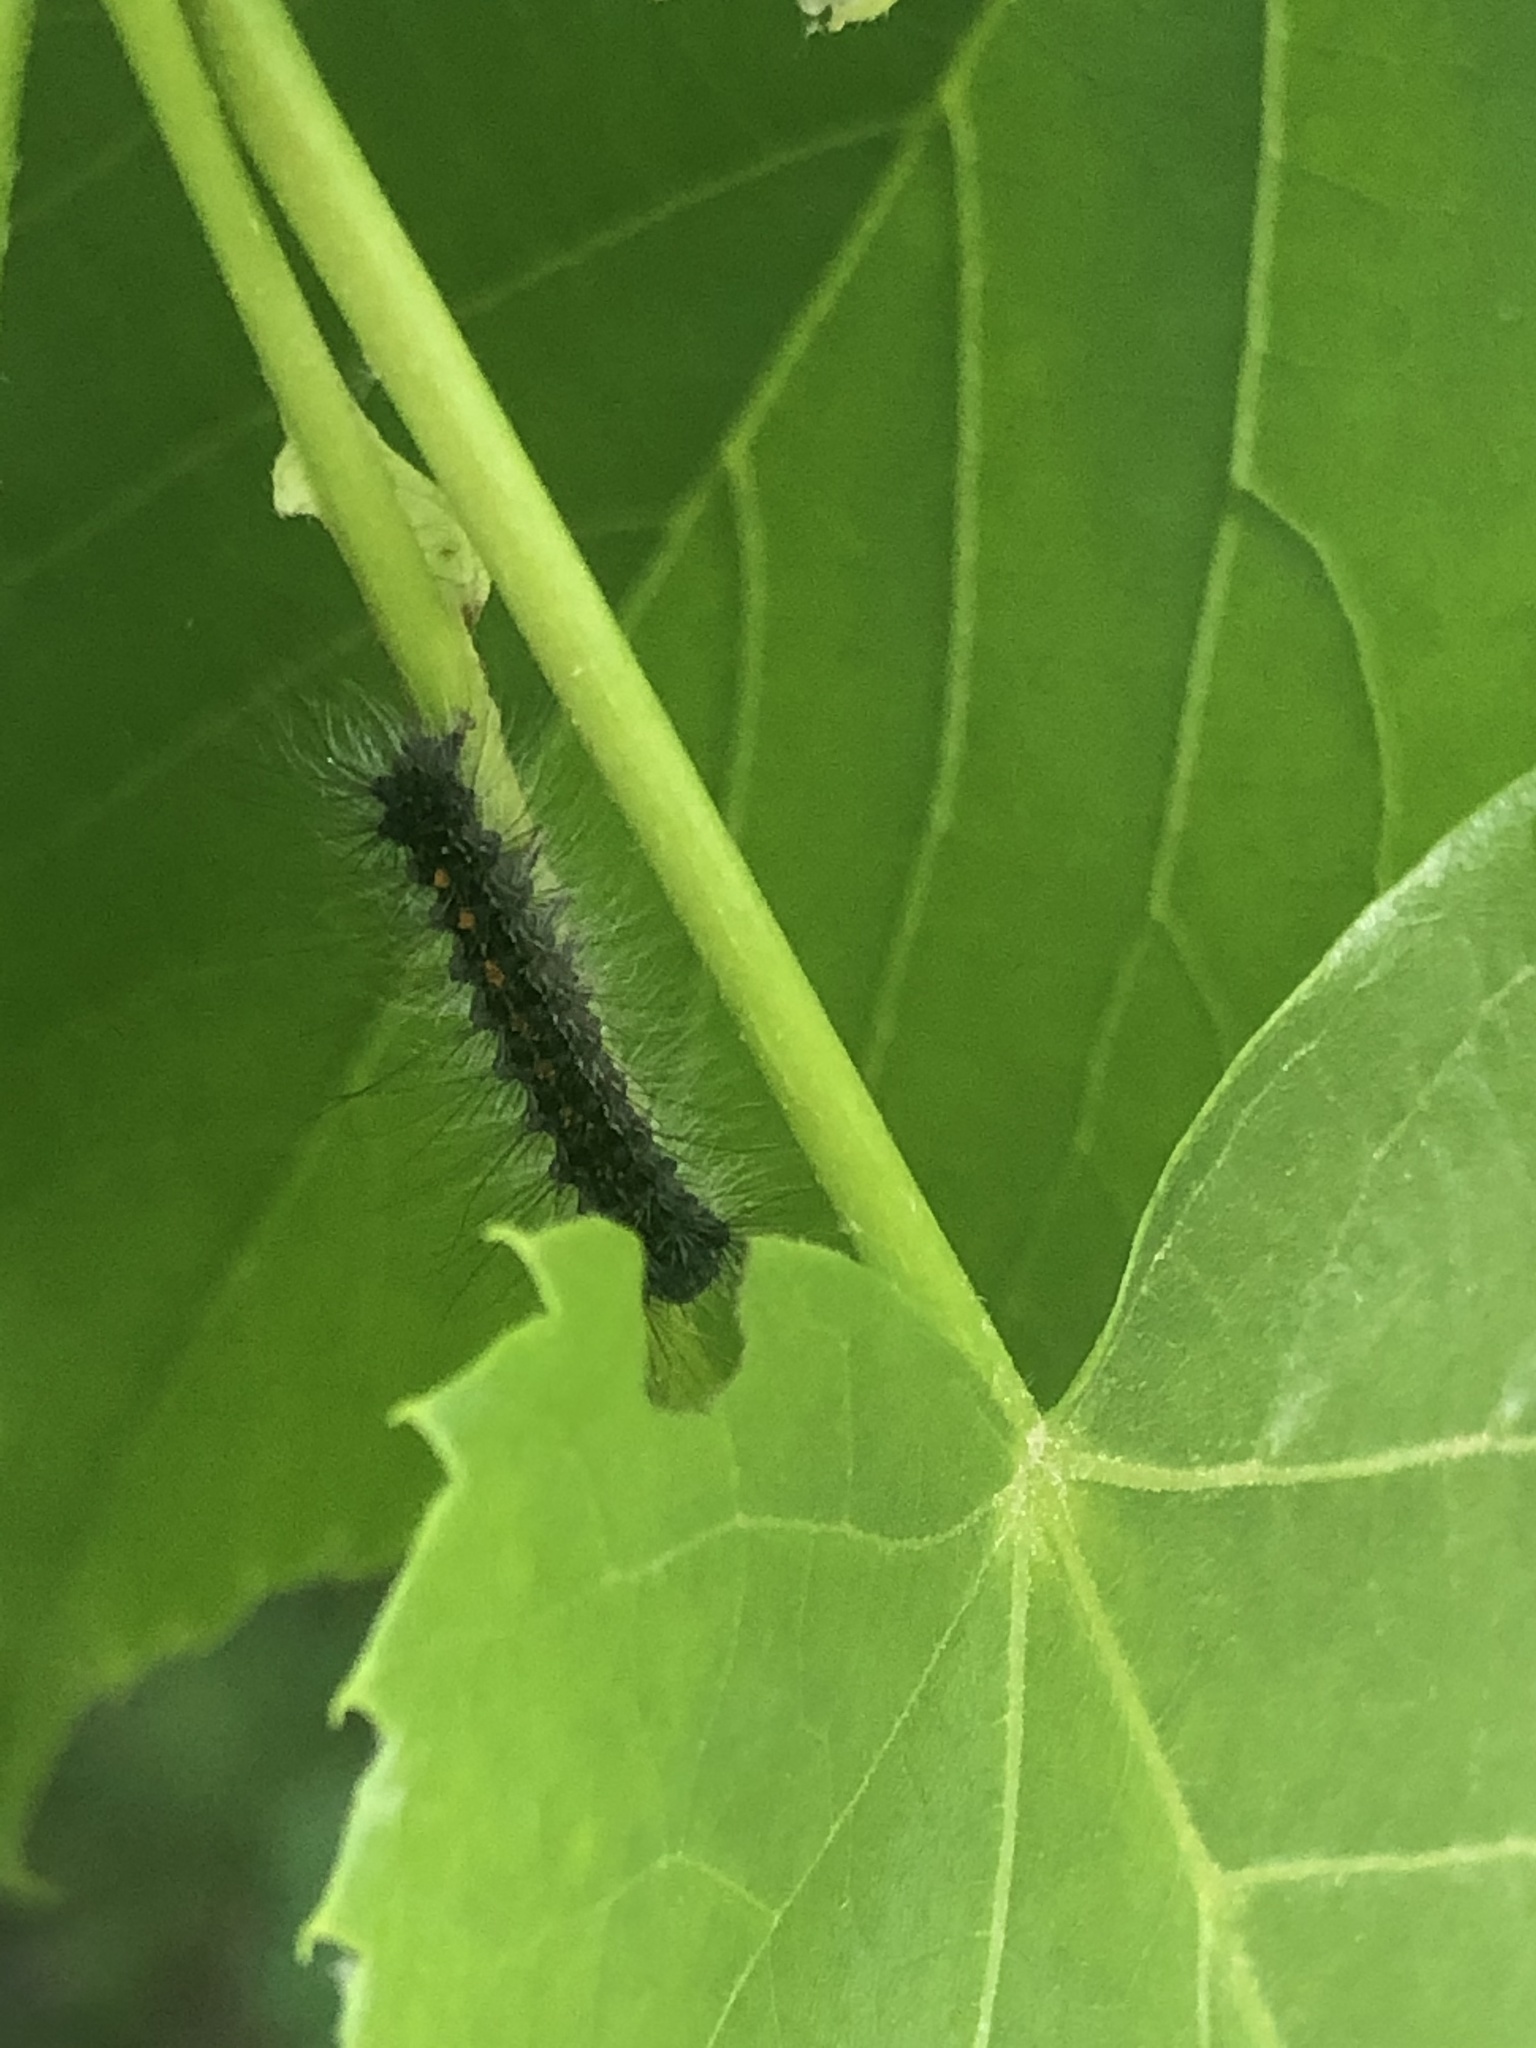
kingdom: Animalia
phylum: Arthropoda
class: Insecta
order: Lepidoptera
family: Erebidae
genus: Lymantria
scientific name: Lymantria dispar
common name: Gypsy moth
